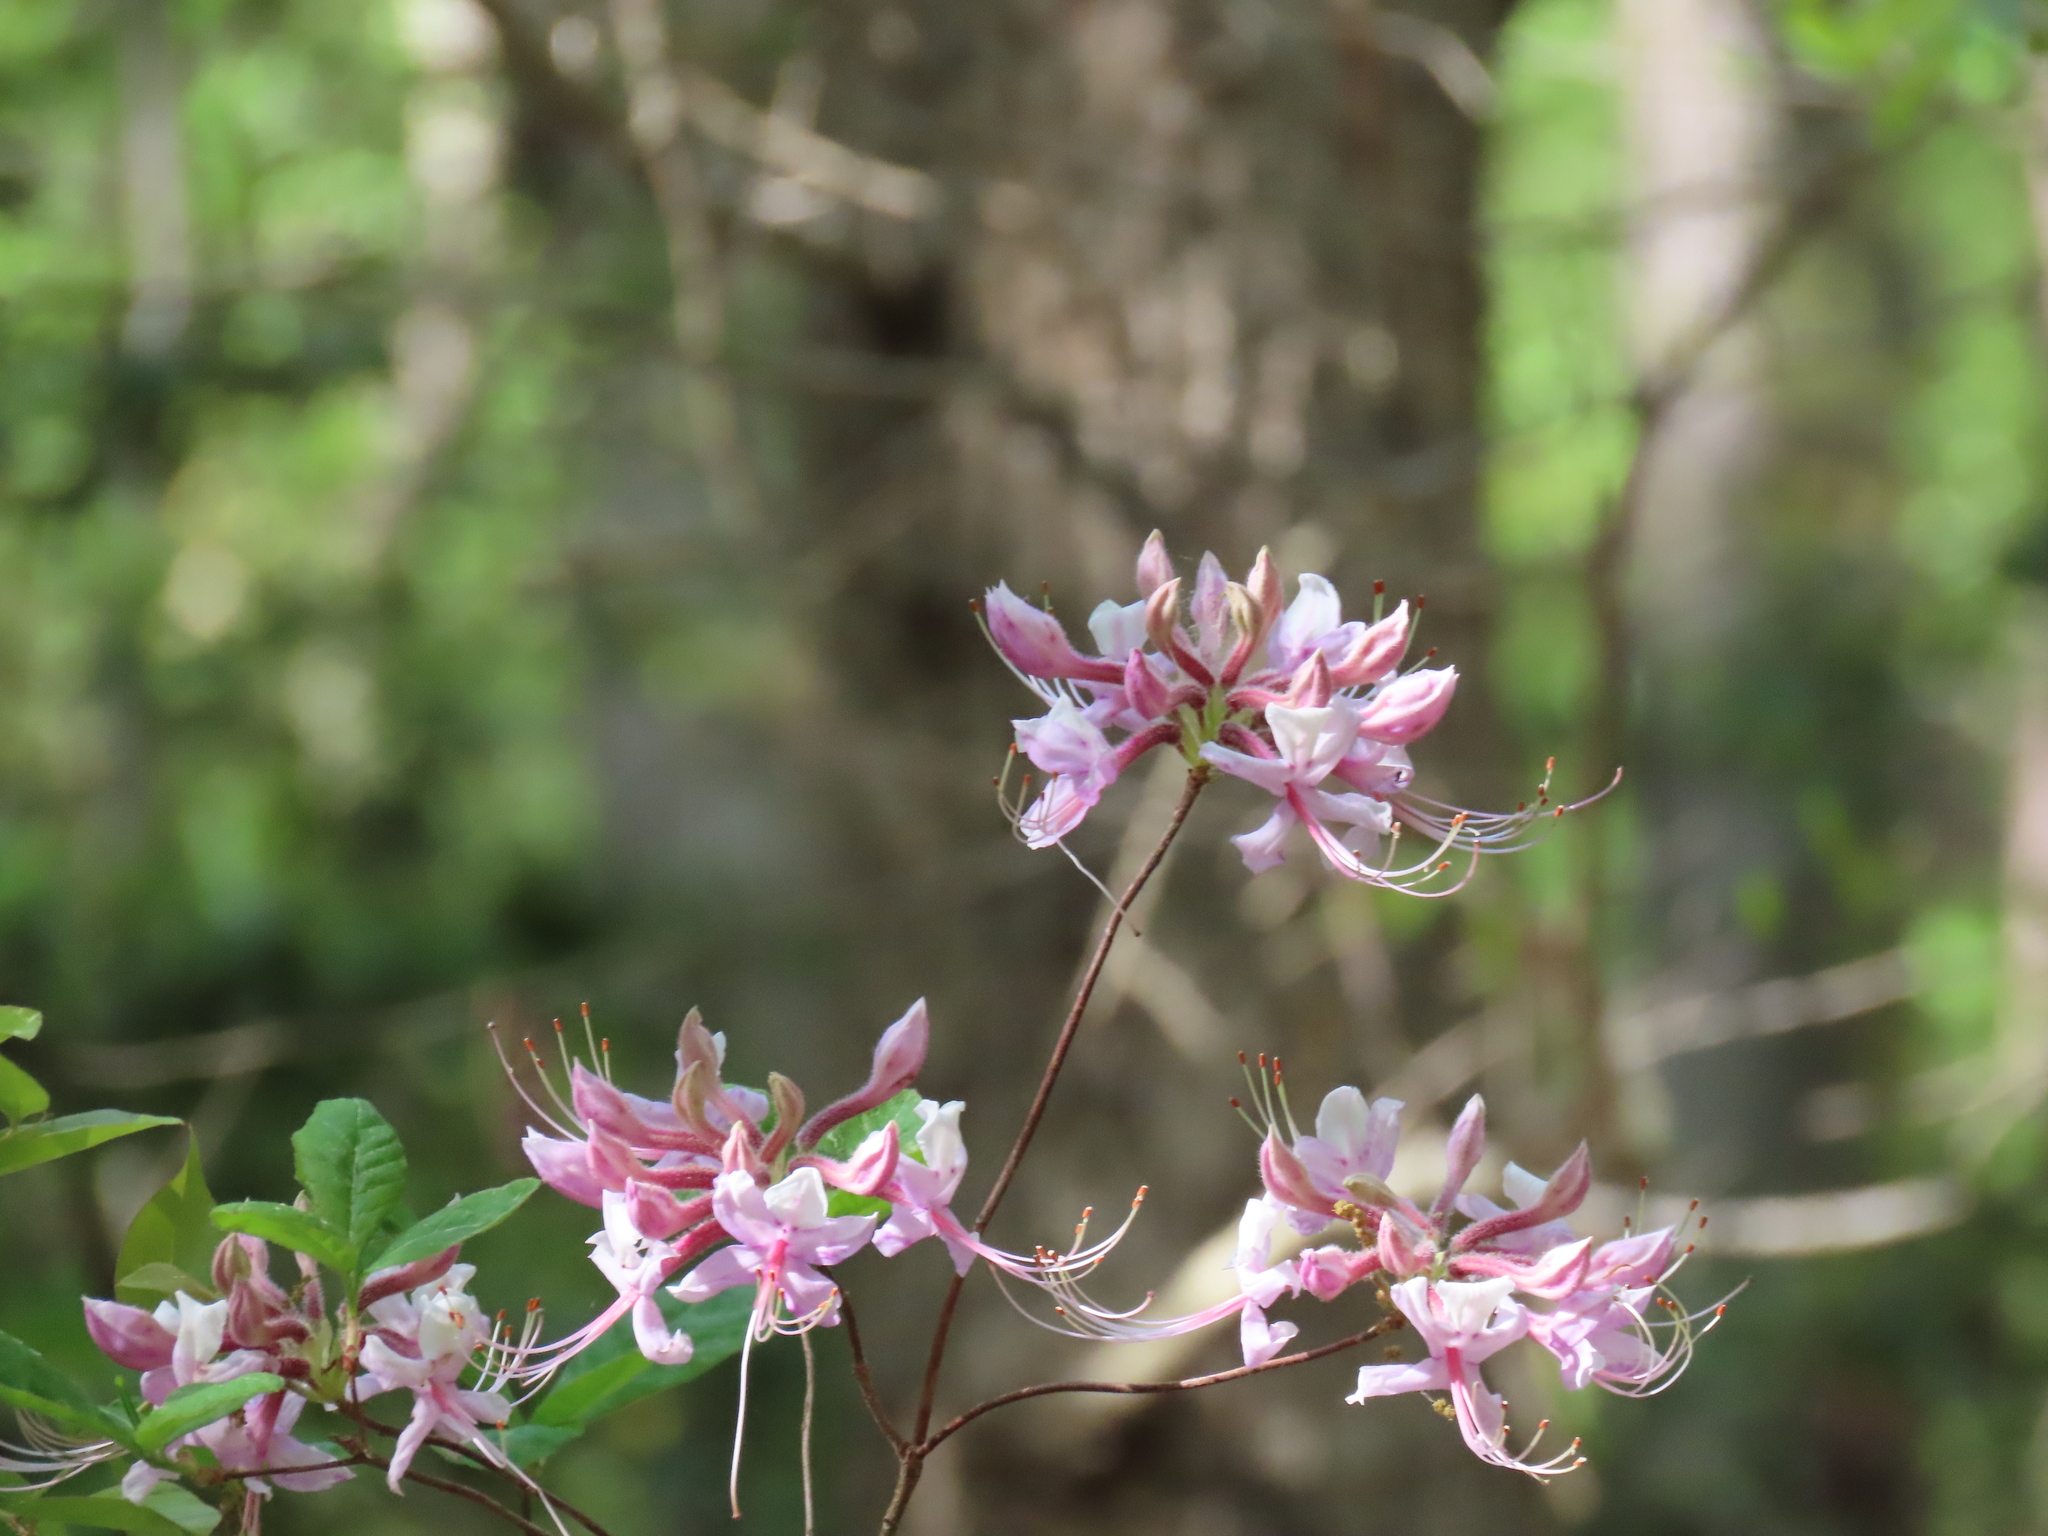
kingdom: Plantae
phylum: Tracheophyta
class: Magnoliopsida
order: Ericales
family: Ericaceae
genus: Rhododendron
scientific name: Rhododendron periclymenoides
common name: Election-pink
